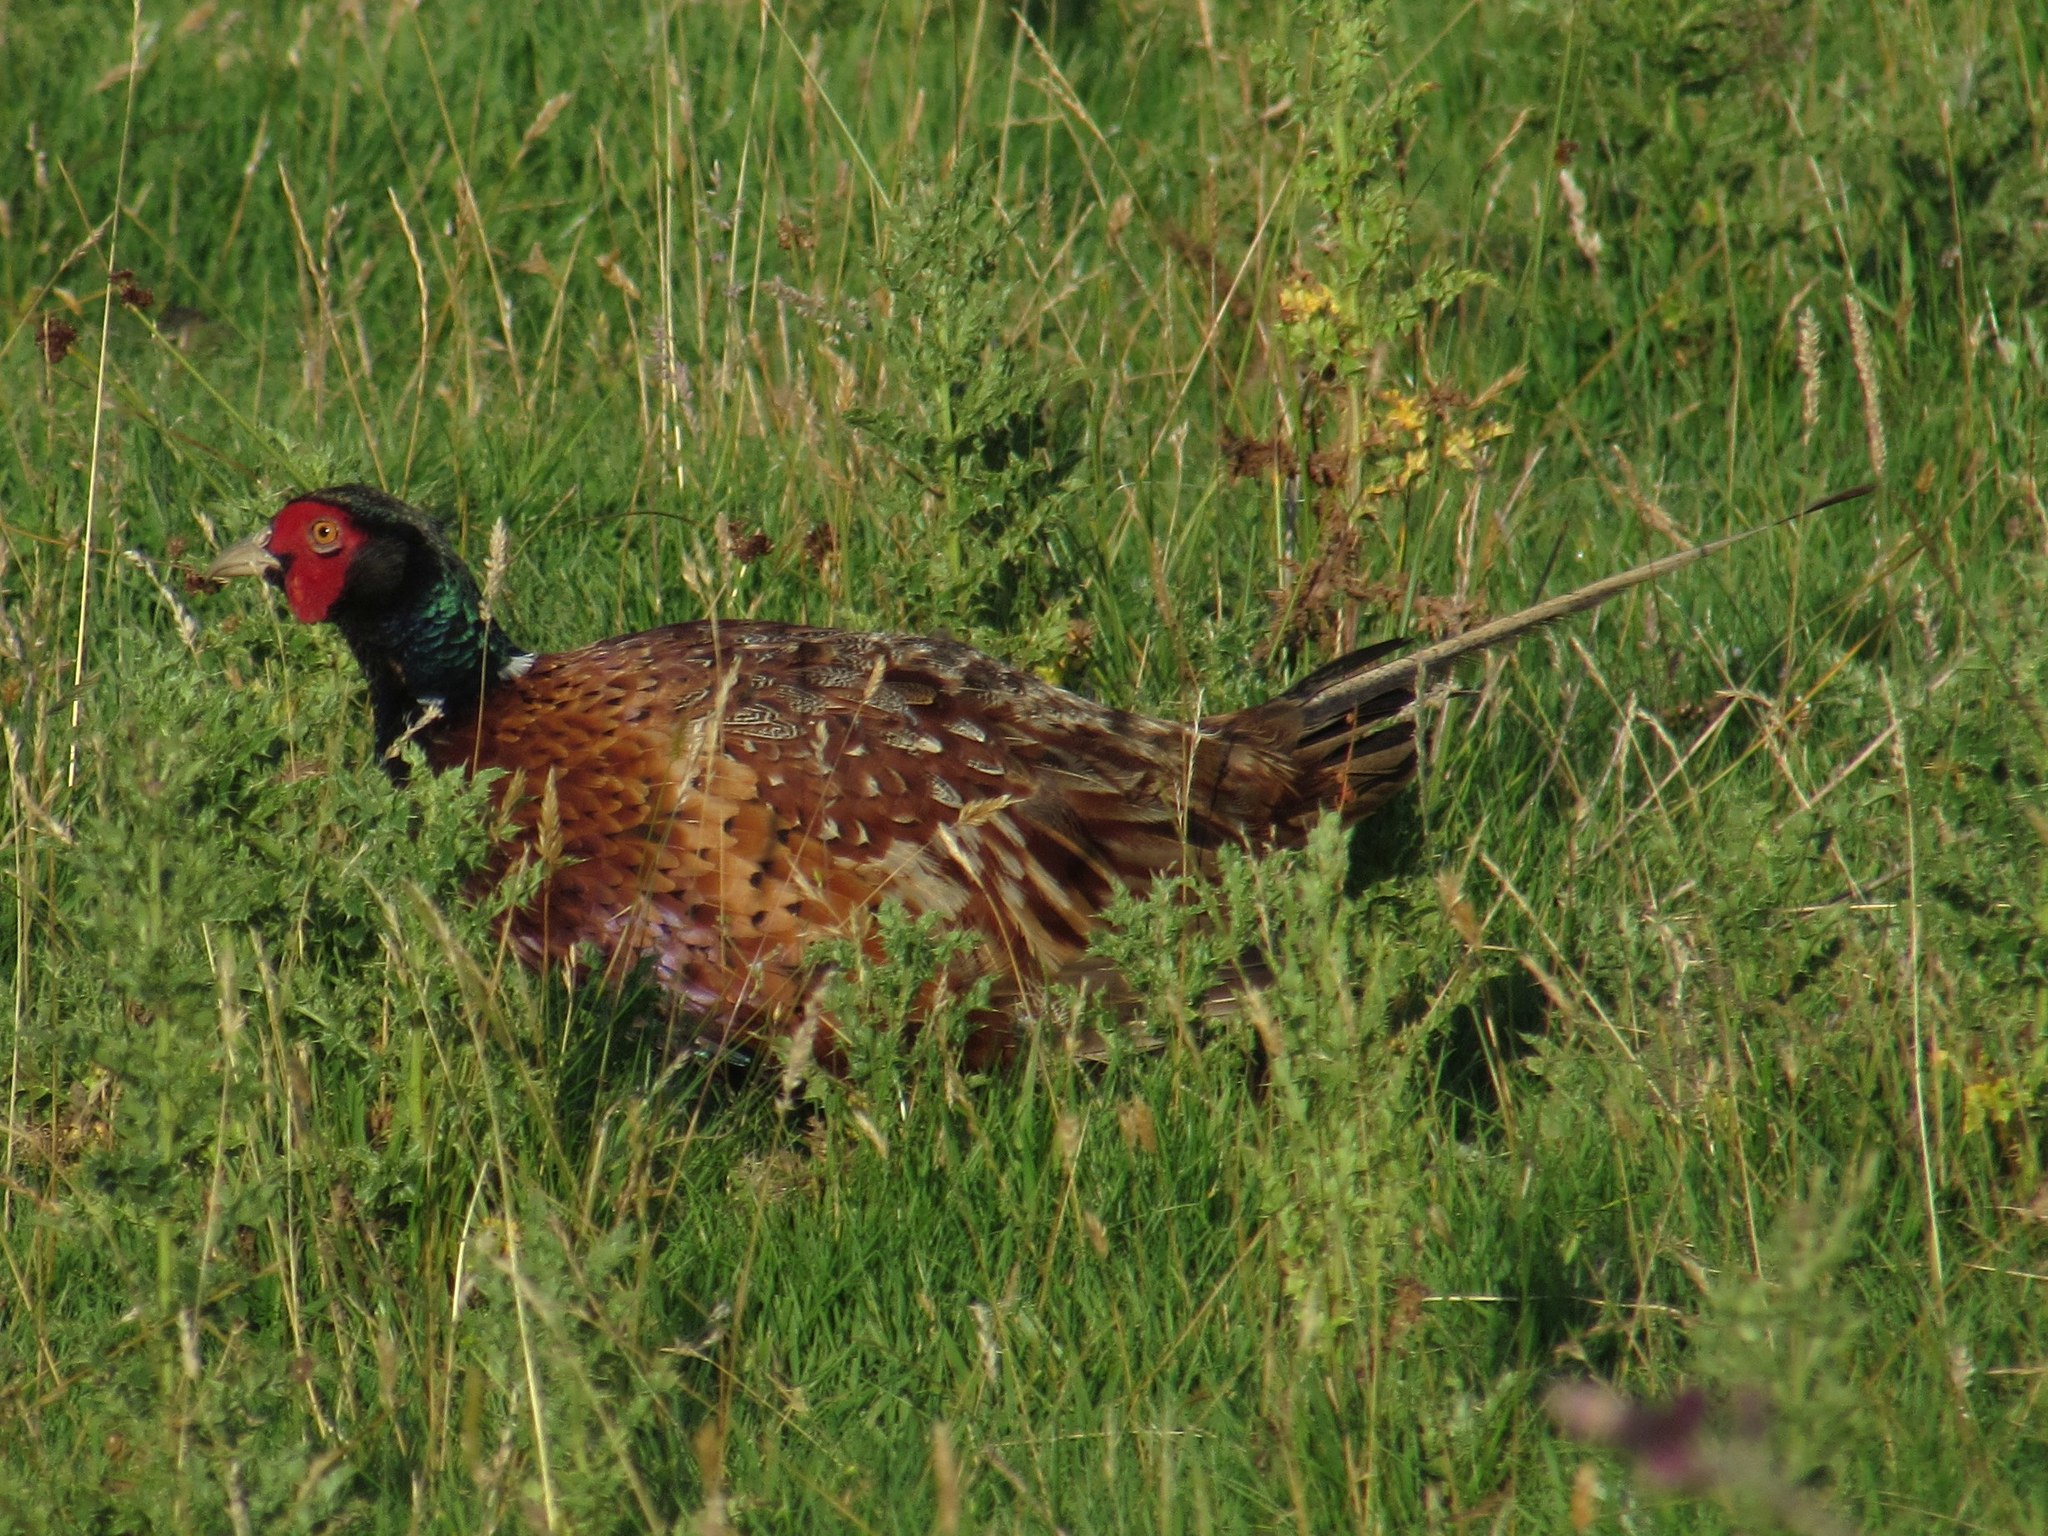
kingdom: Animalia
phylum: Chordata
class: Aves
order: Galliformes
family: Phasianidae
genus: Phasianus
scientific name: Phasianus colchicus
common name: Common pheasant
